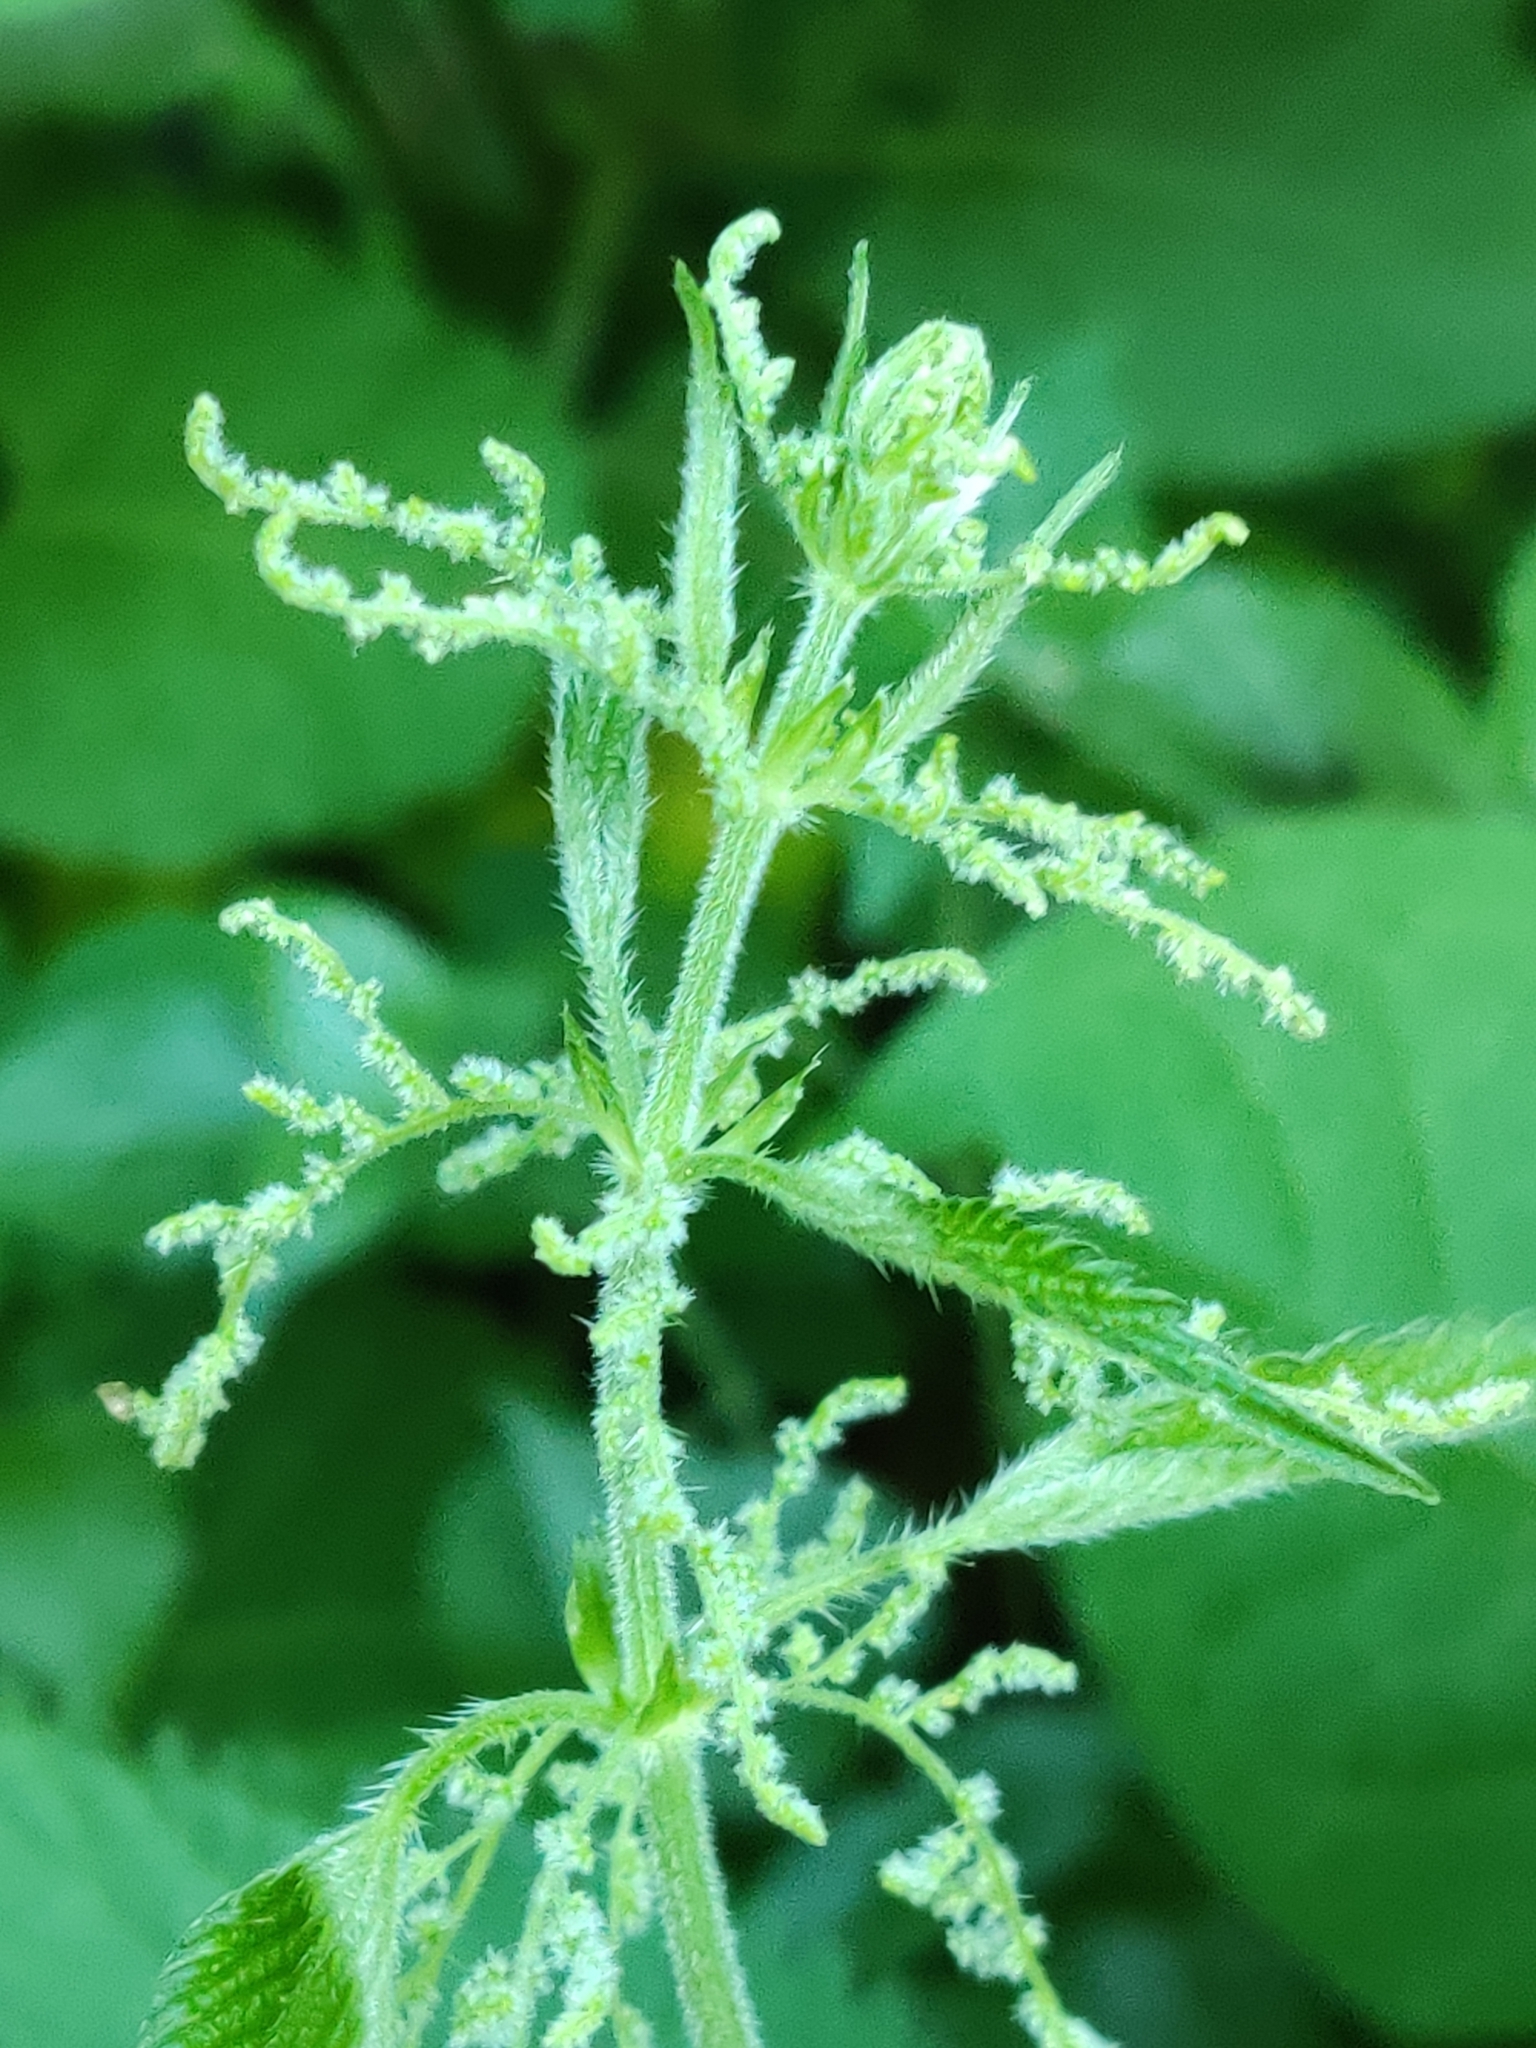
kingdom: Plantae
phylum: Tracheophyta
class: Magnoliopsida
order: Rosales
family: Urticaceae
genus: Urtica
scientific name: Urtica dioica
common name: Common nettle
